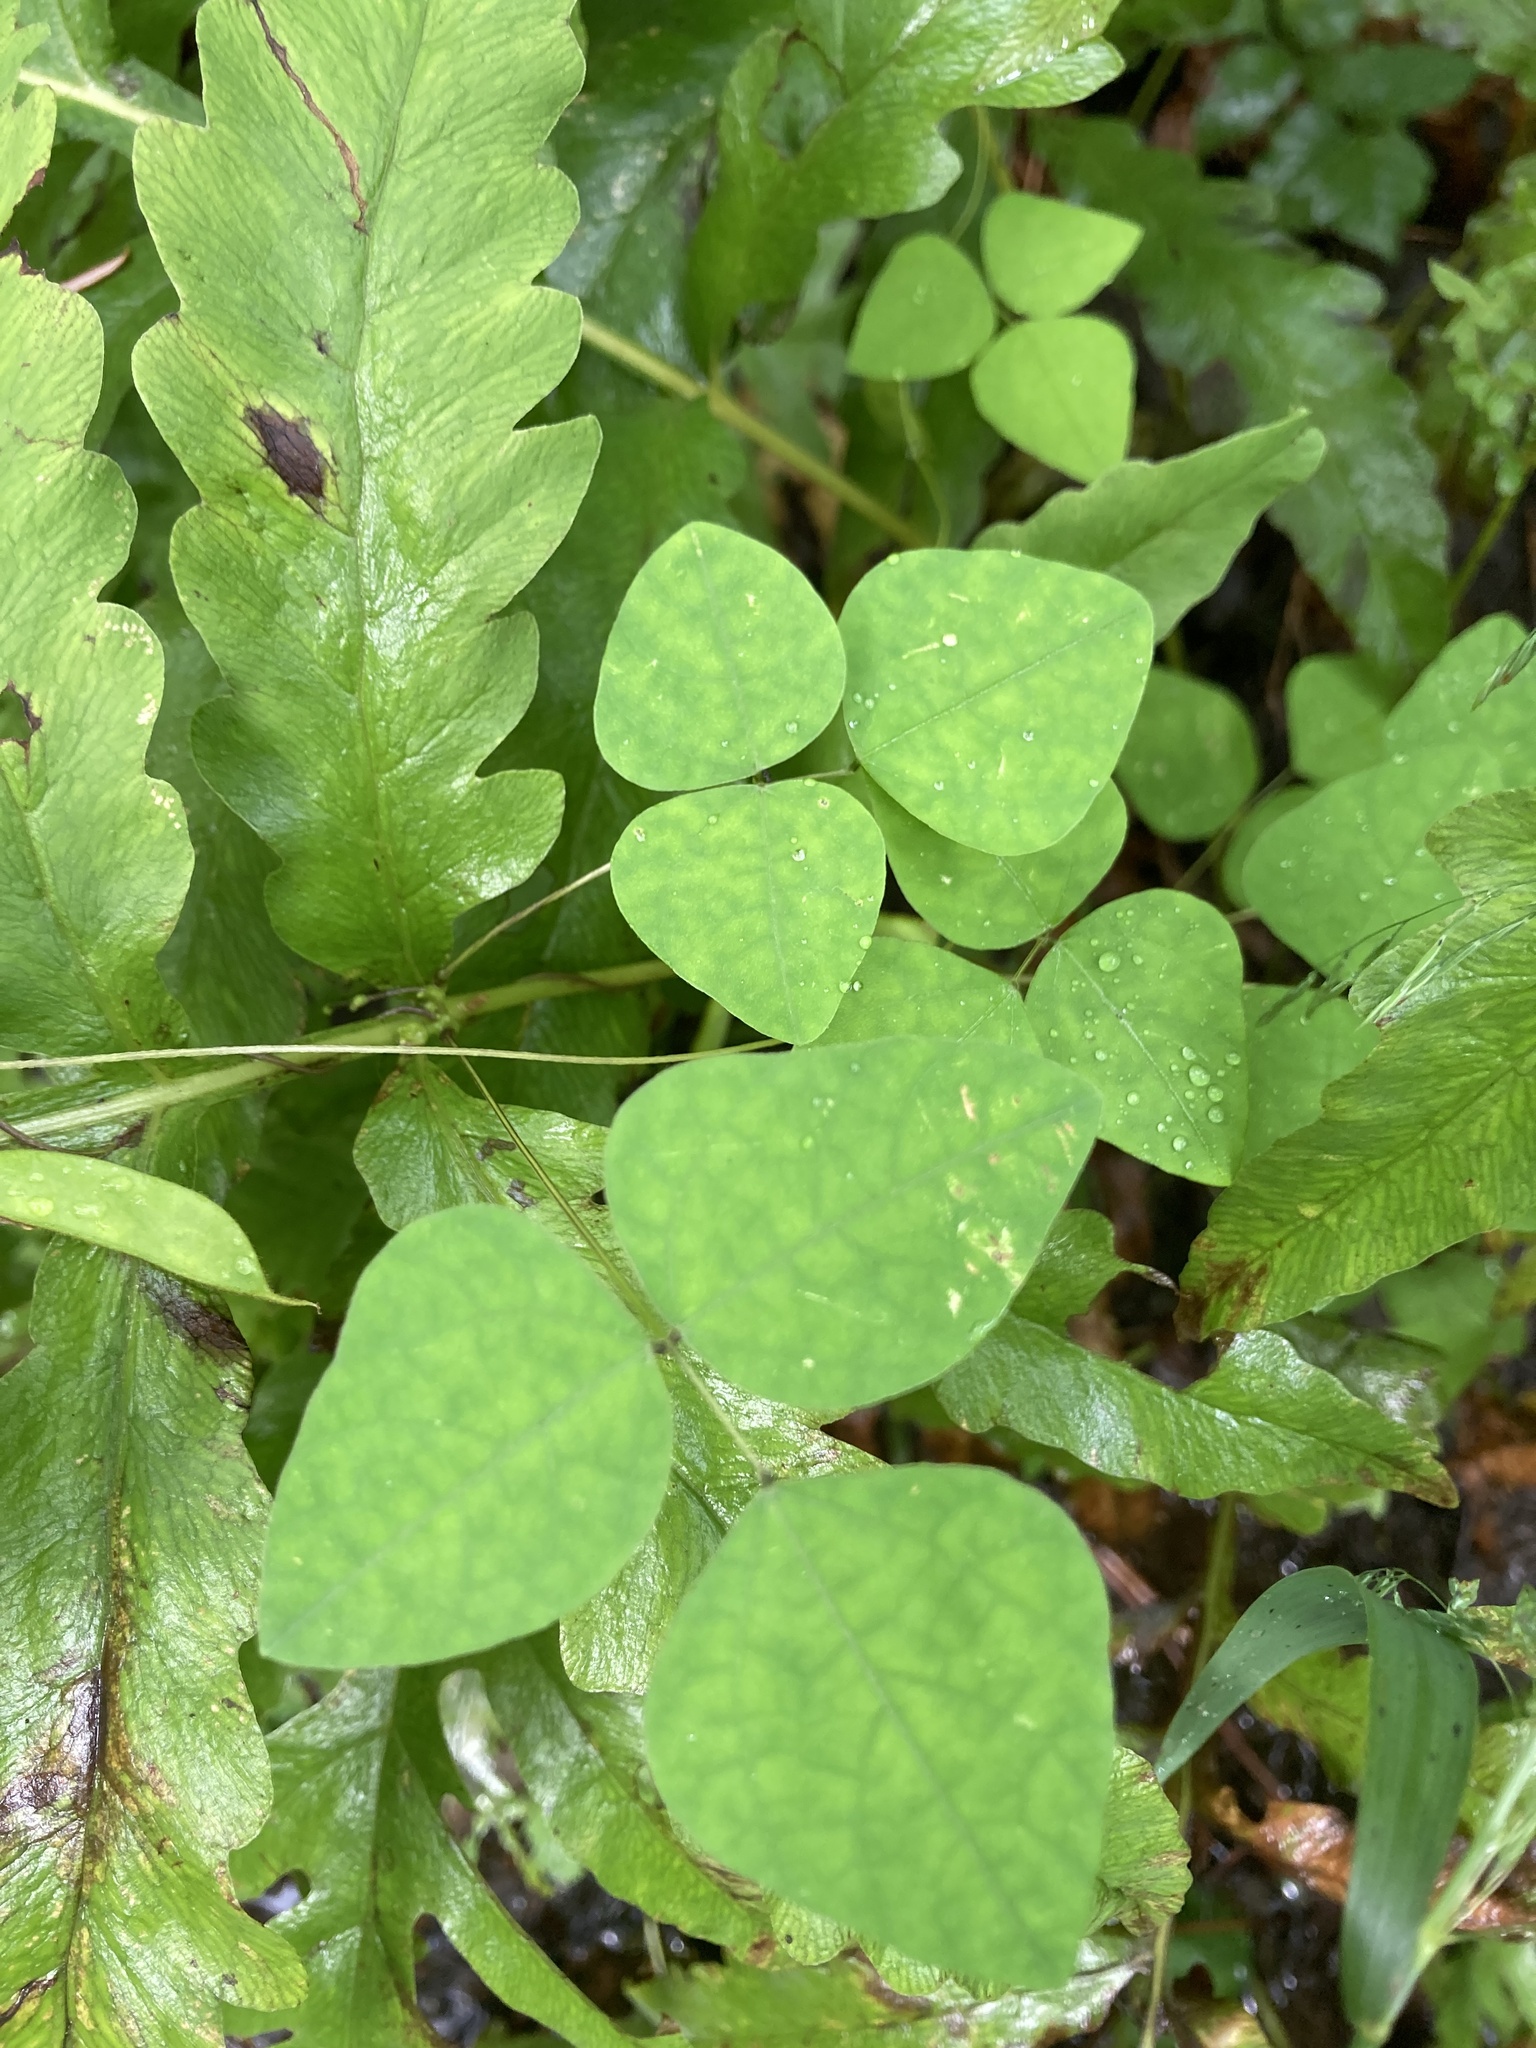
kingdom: Plantae
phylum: Tracheophyta
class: Magnoliopsida
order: Fabales
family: Fabaceae
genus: Amphicarpaea
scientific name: Amphicarpaea bracteata
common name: American hog peanut
